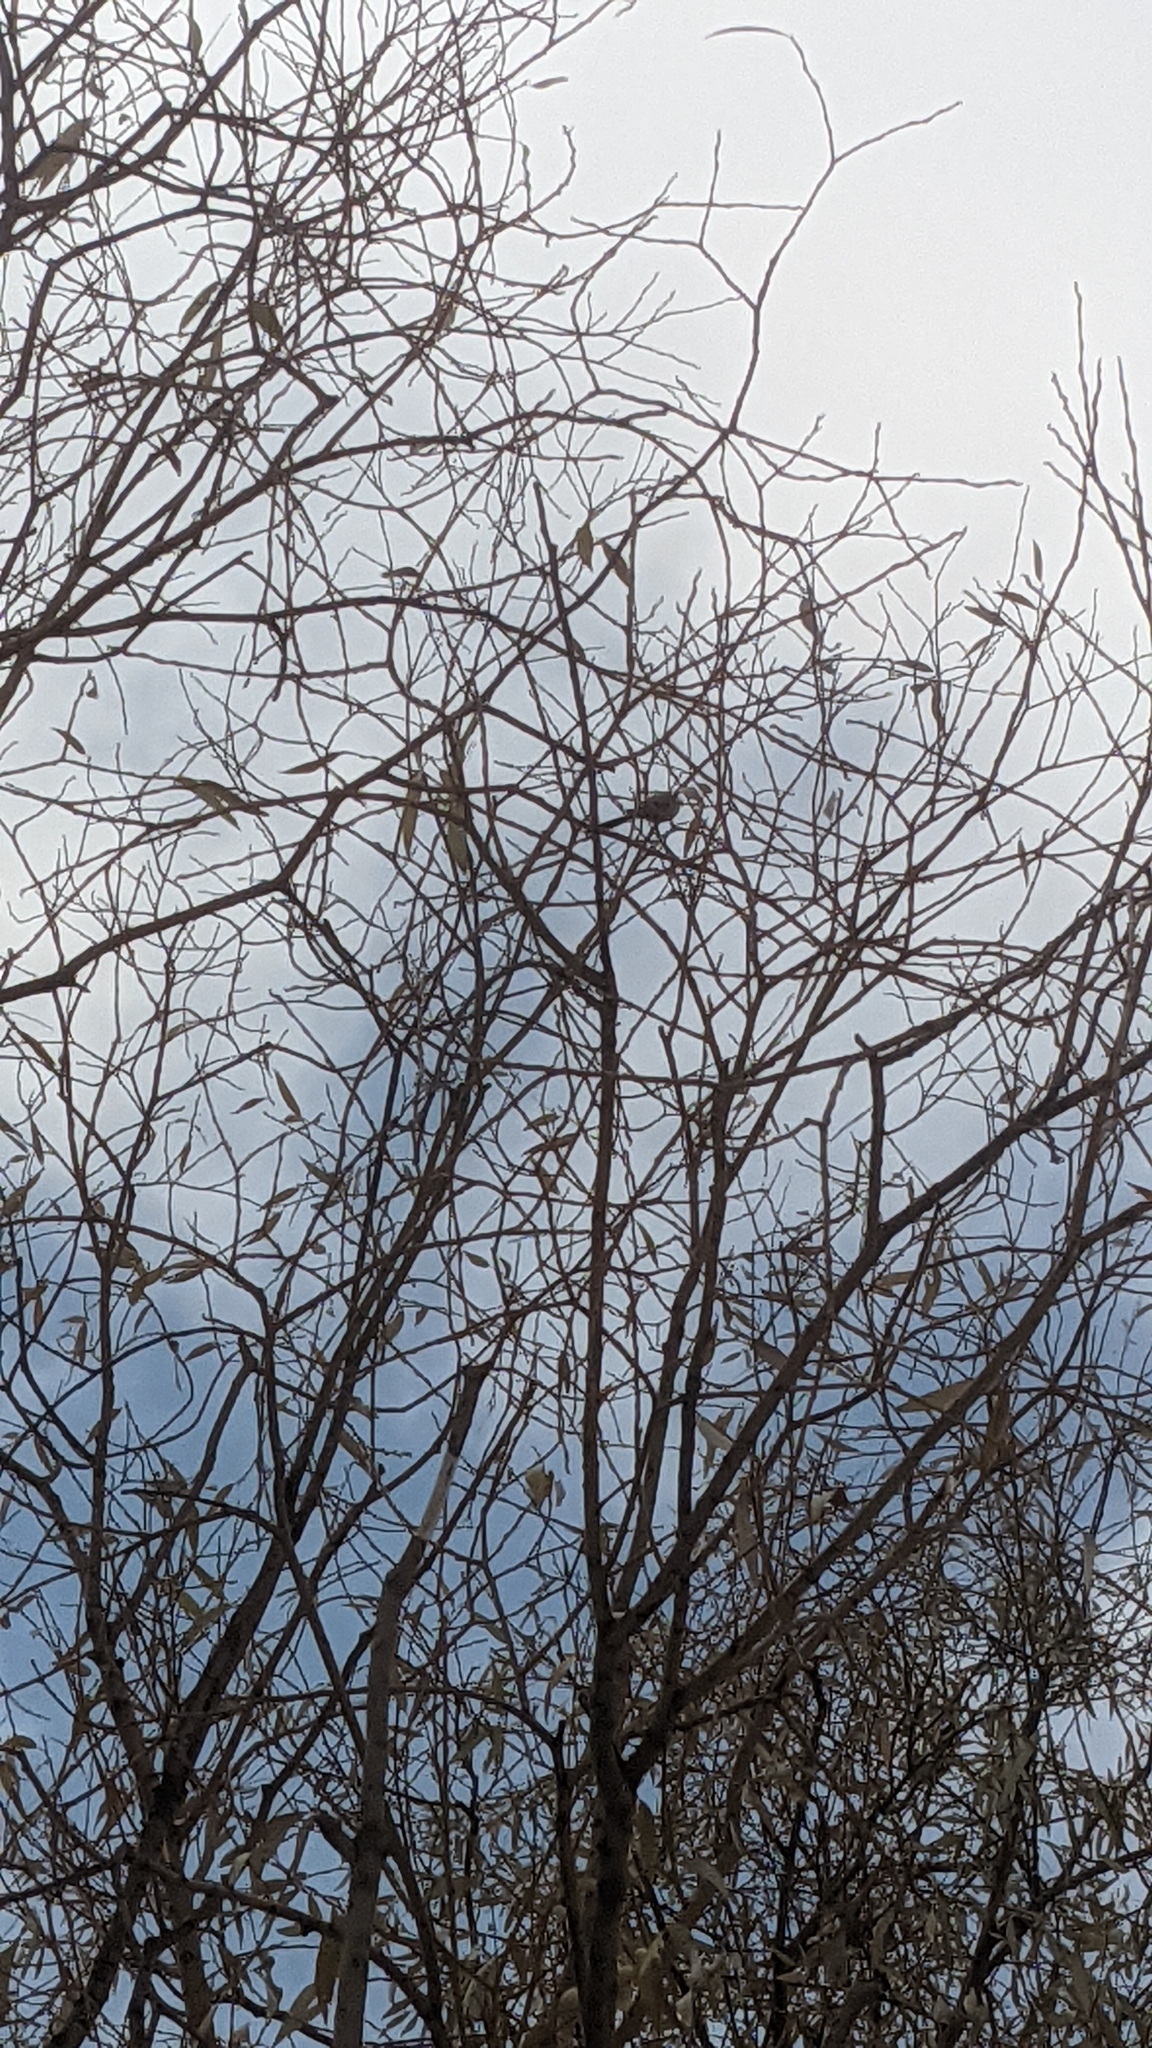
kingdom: Animalia
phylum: Chordata
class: Aves
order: Passeriformes
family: Aegithalidae
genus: Aegithalos
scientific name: Aegithalos caudatus
